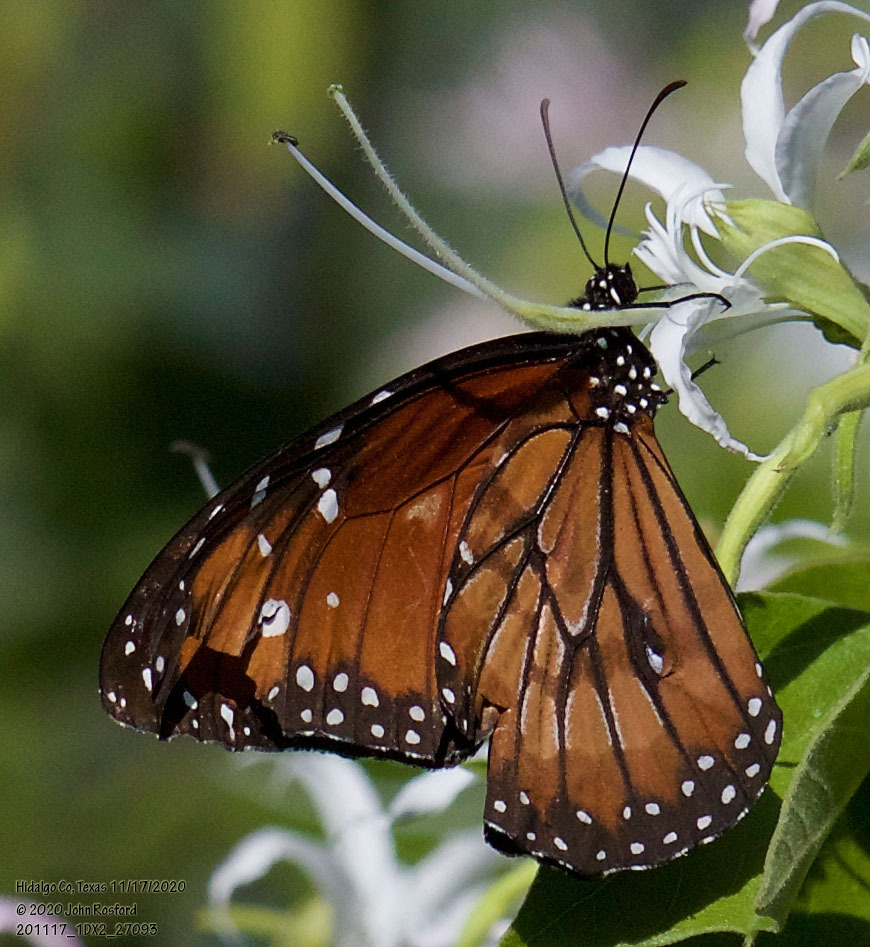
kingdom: Animalia
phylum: Arthropoda
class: Insecta
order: Lepidoptera
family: Nymphalidae
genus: Danaus
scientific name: Danaus eresimus
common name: Soldier
